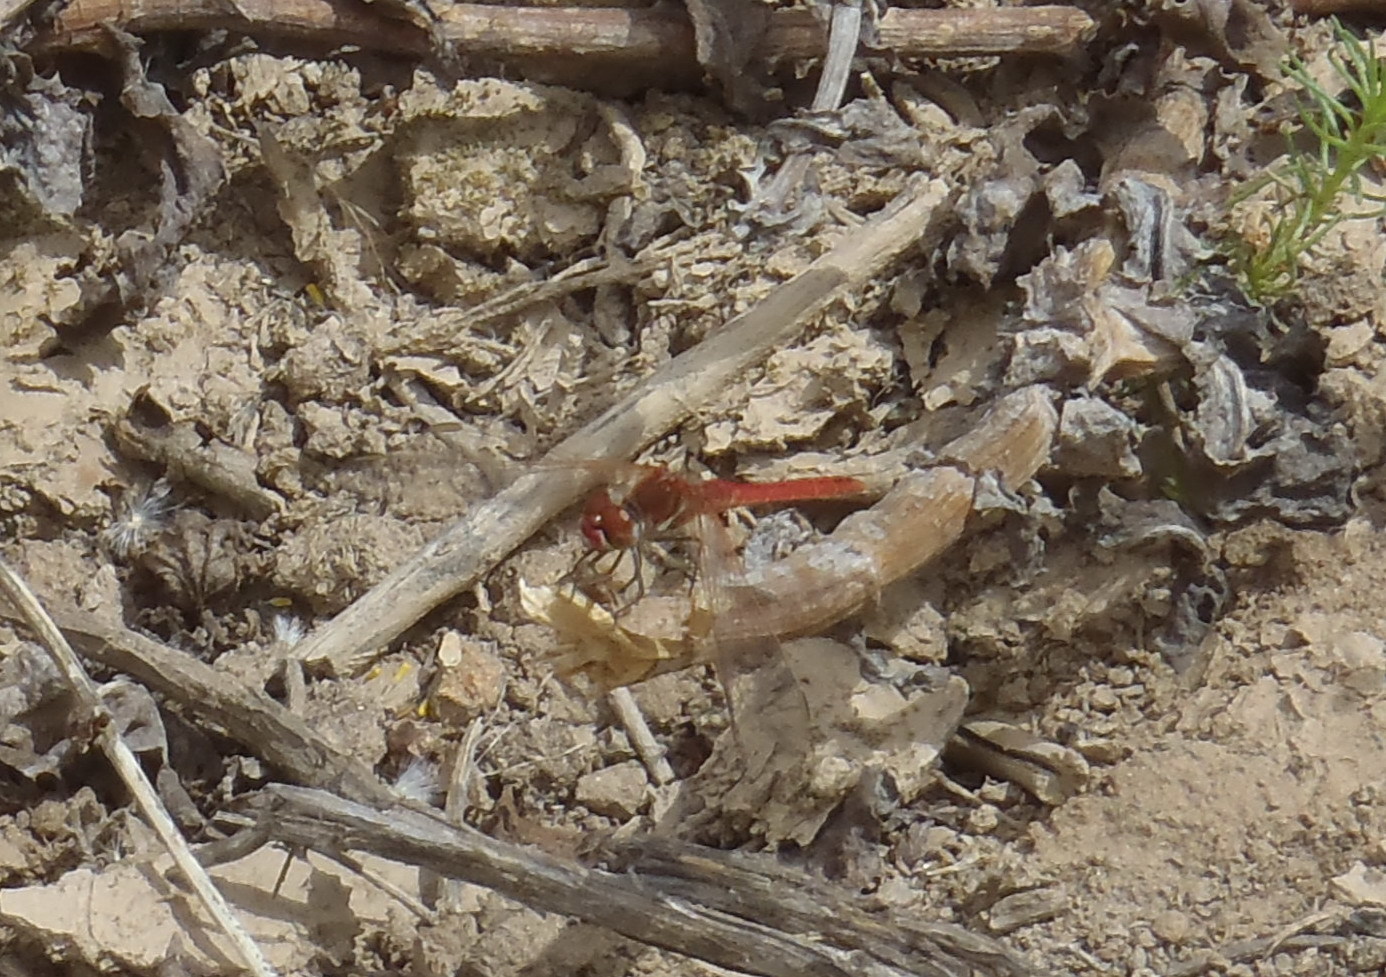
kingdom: Animalia
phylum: Arthropoda
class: Insecta
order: Odonata
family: Libellulidae
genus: Sympetrum
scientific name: Sympetrum fonscolombii
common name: Red-veined darter
